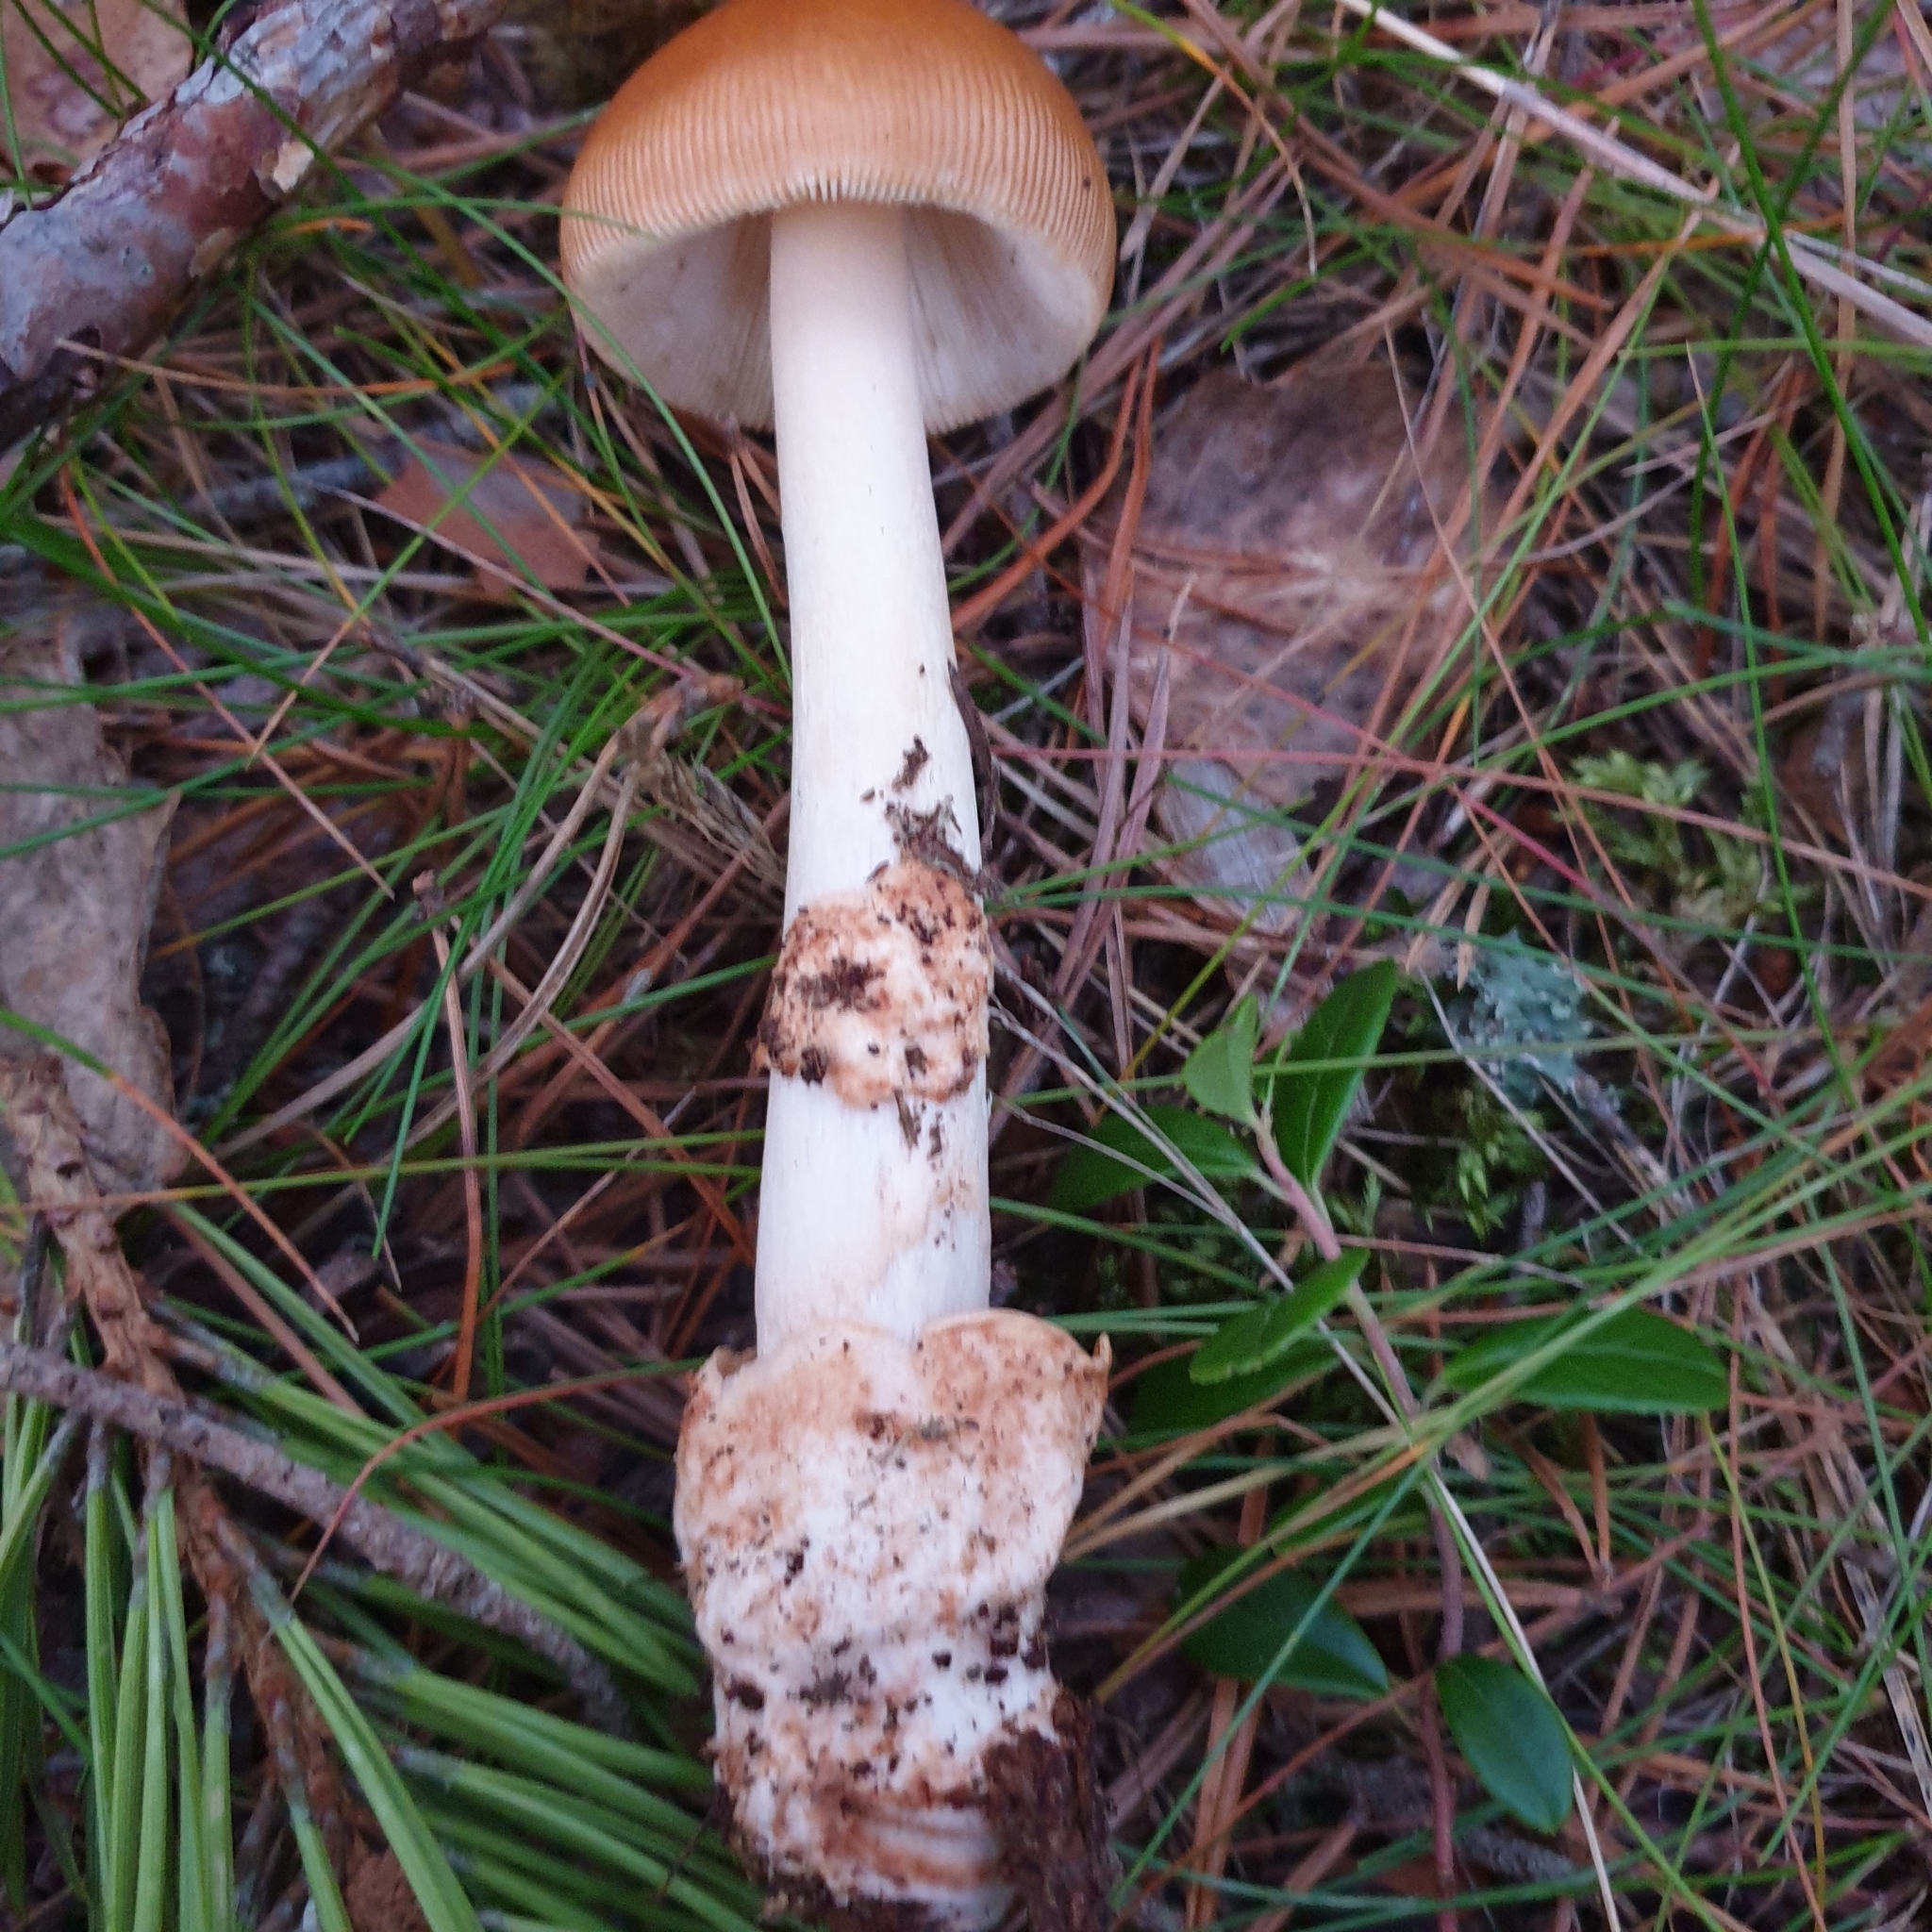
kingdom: Fungi
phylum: Basidiomycota
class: Agaricomycetes
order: Agaricales
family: Amanitaceae
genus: Amanita
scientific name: Amanita fulva
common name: Tawny grisette
